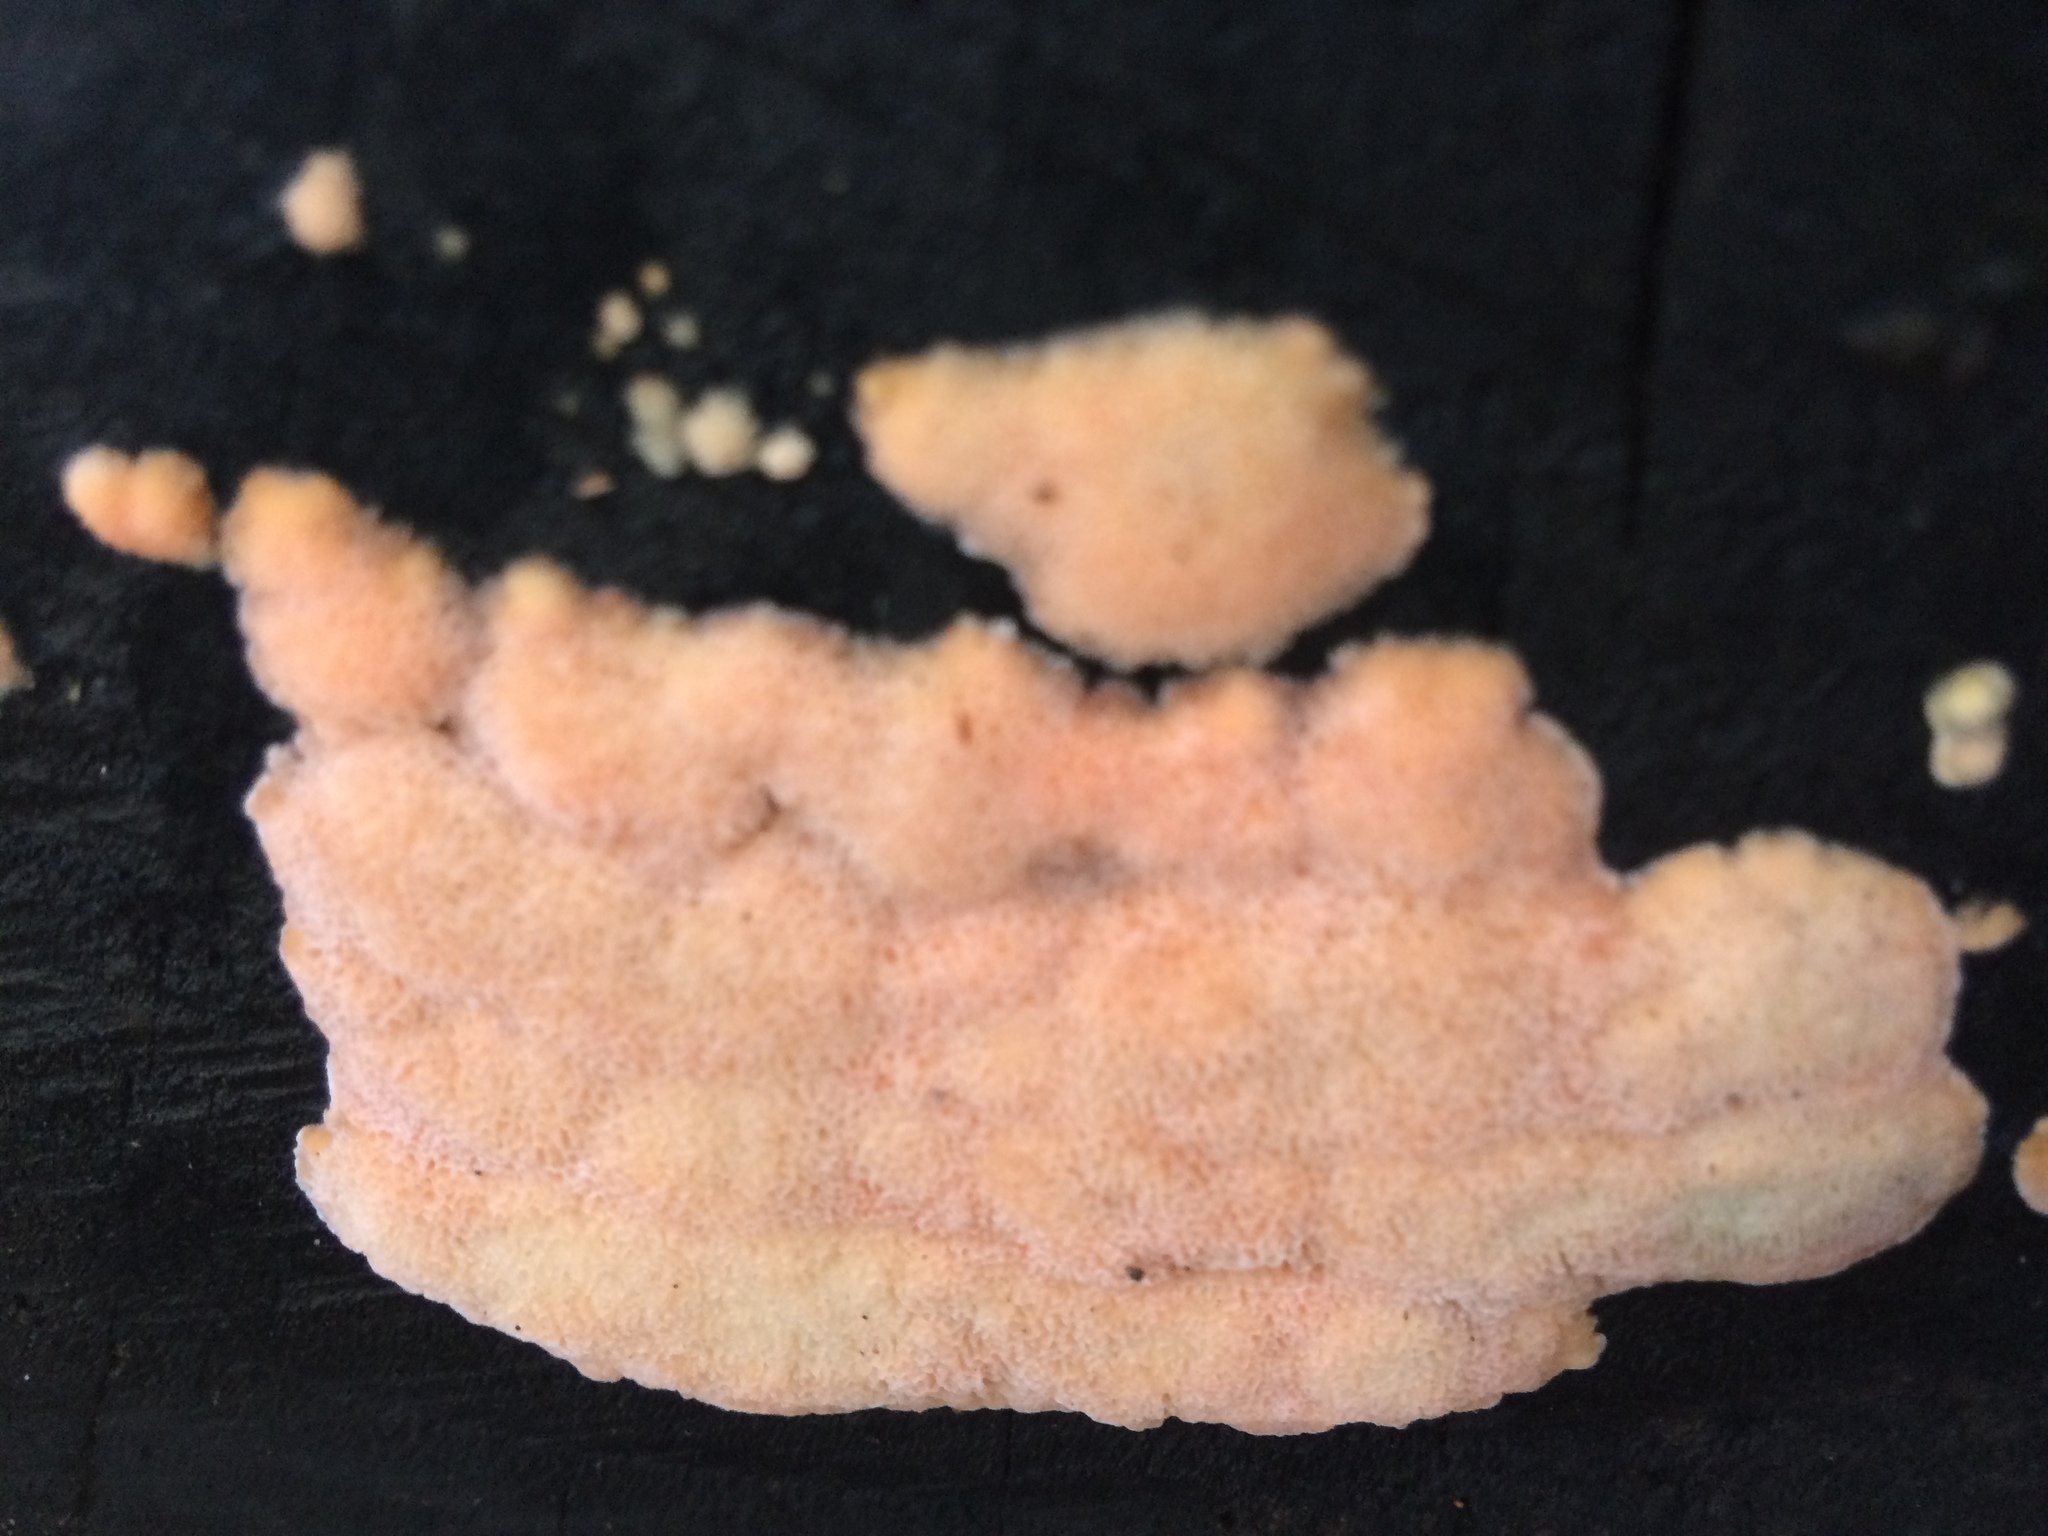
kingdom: Fungi
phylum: Basidiomycota
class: Agaricomycetes
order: Polyporales
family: Cerrenaceae
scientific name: Cerrenaceae
